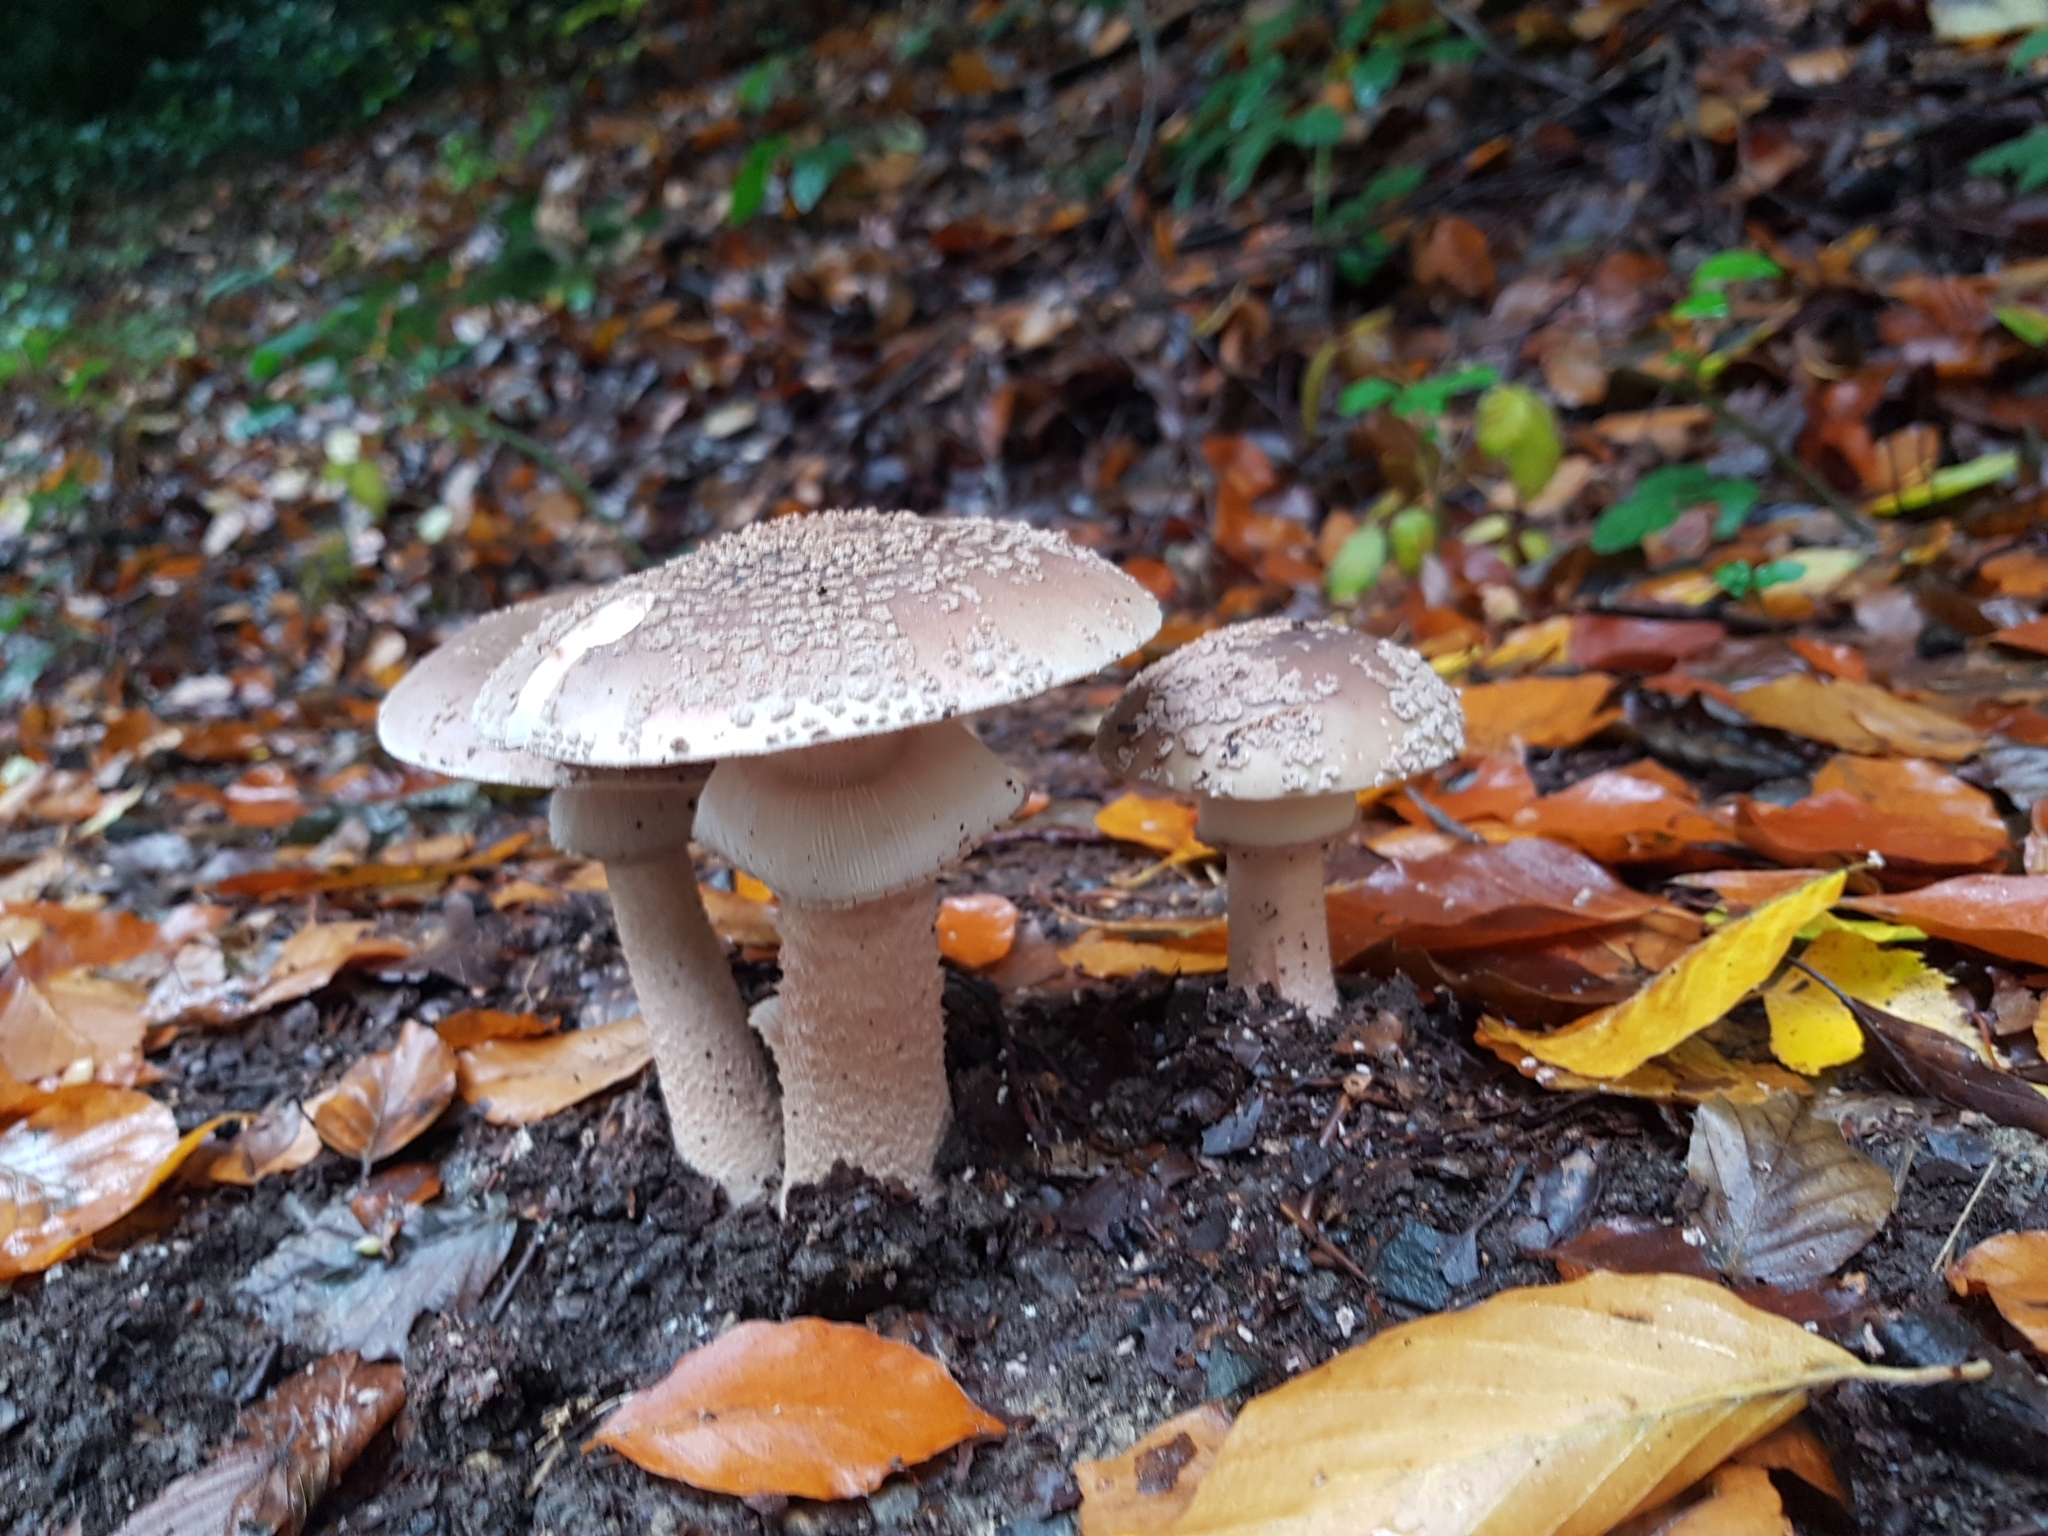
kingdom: Fungi
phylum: Basidiomycota
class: Agaricomycetes
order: Agaricales
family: Amanitaceae
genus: Amanita
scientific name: Amanita rubescens
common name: Blusher
